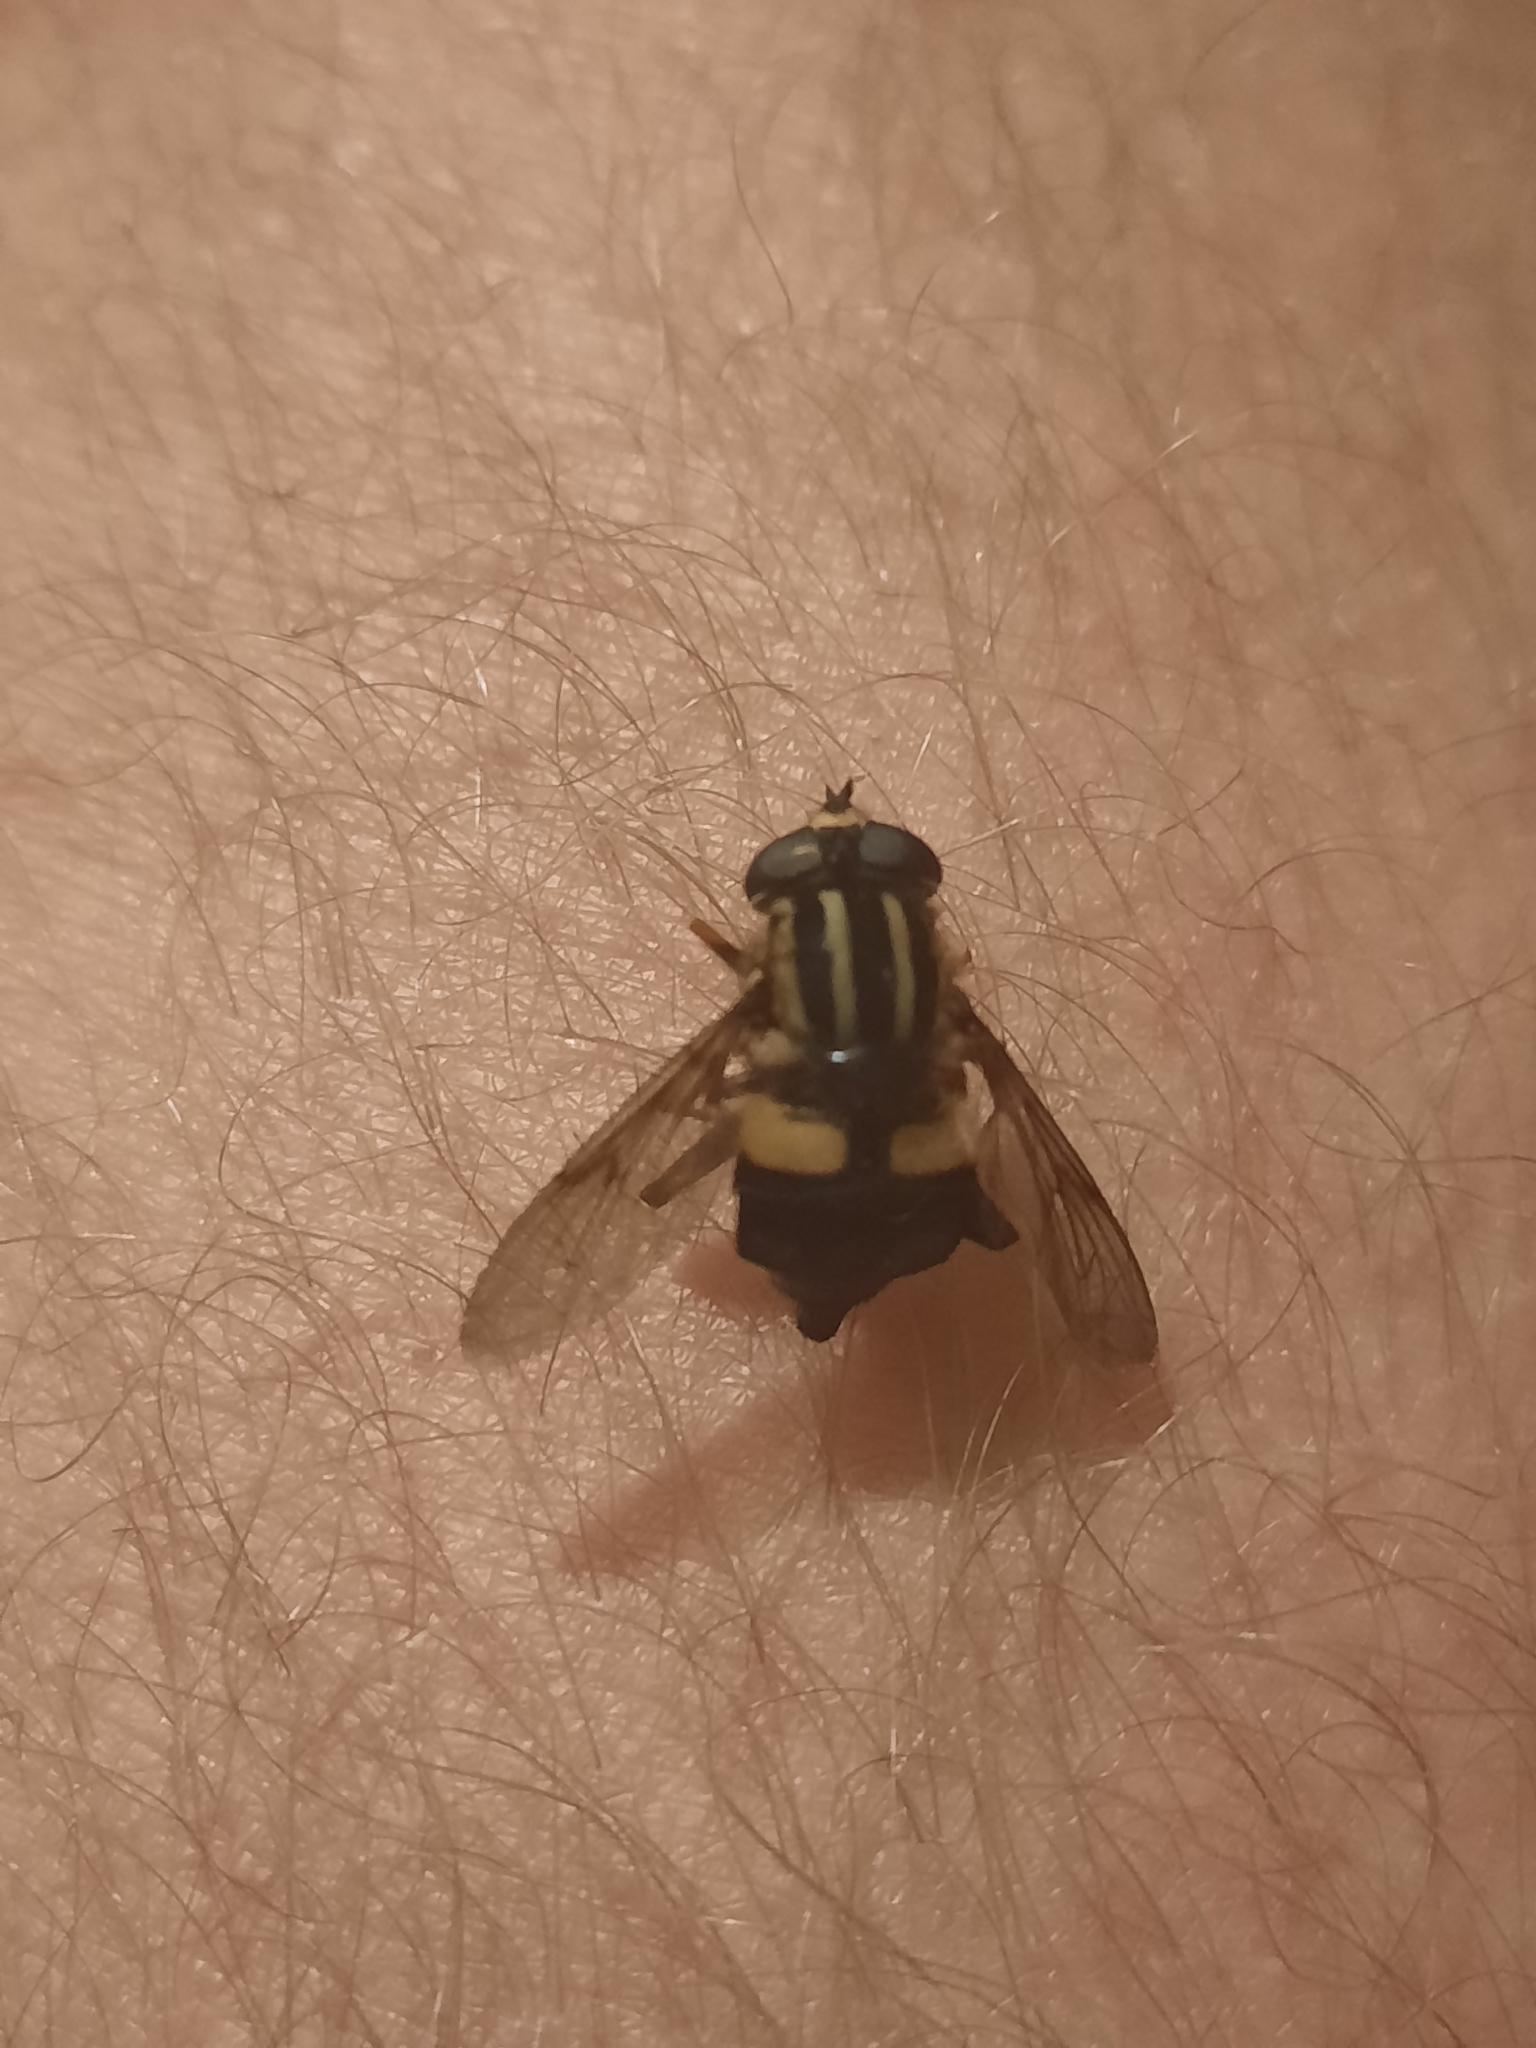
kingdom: Animalia
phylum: Arthropoda
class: Insecta
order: Diptera
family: Syrphidae
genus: Helophilus
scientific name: Helophilus seelandicus
